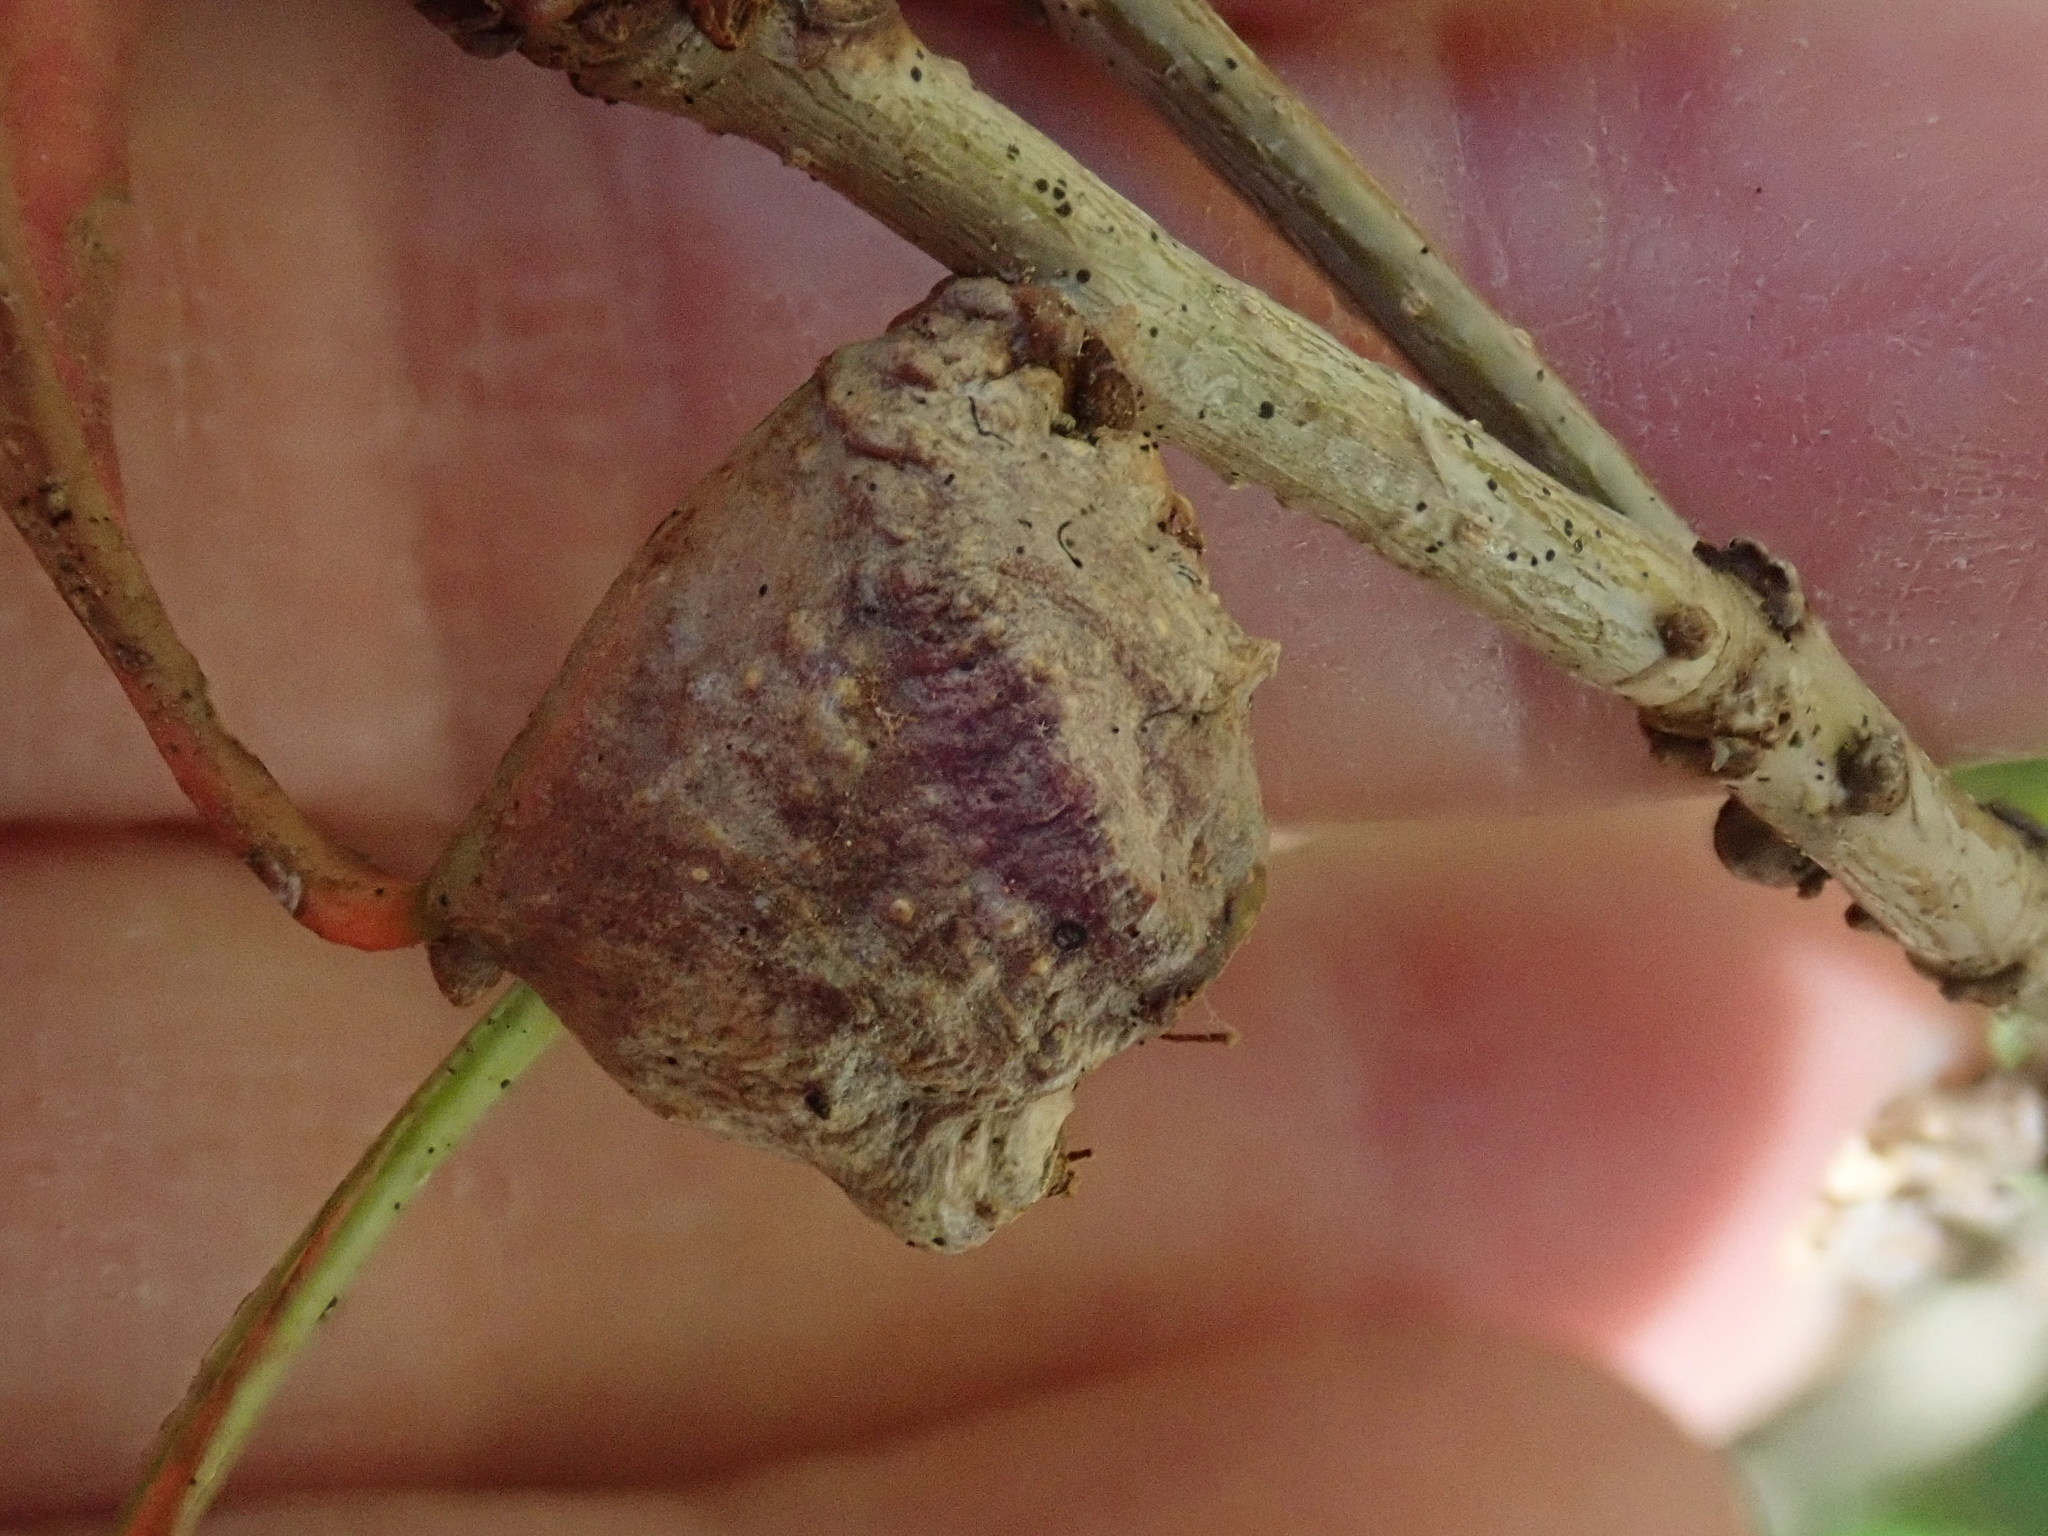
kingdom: Animalia
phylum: Arthropoda
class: Insecta
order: Hymenoptera
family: Cynipidae
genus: Callirhytis
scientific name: Callirhytis clavula
